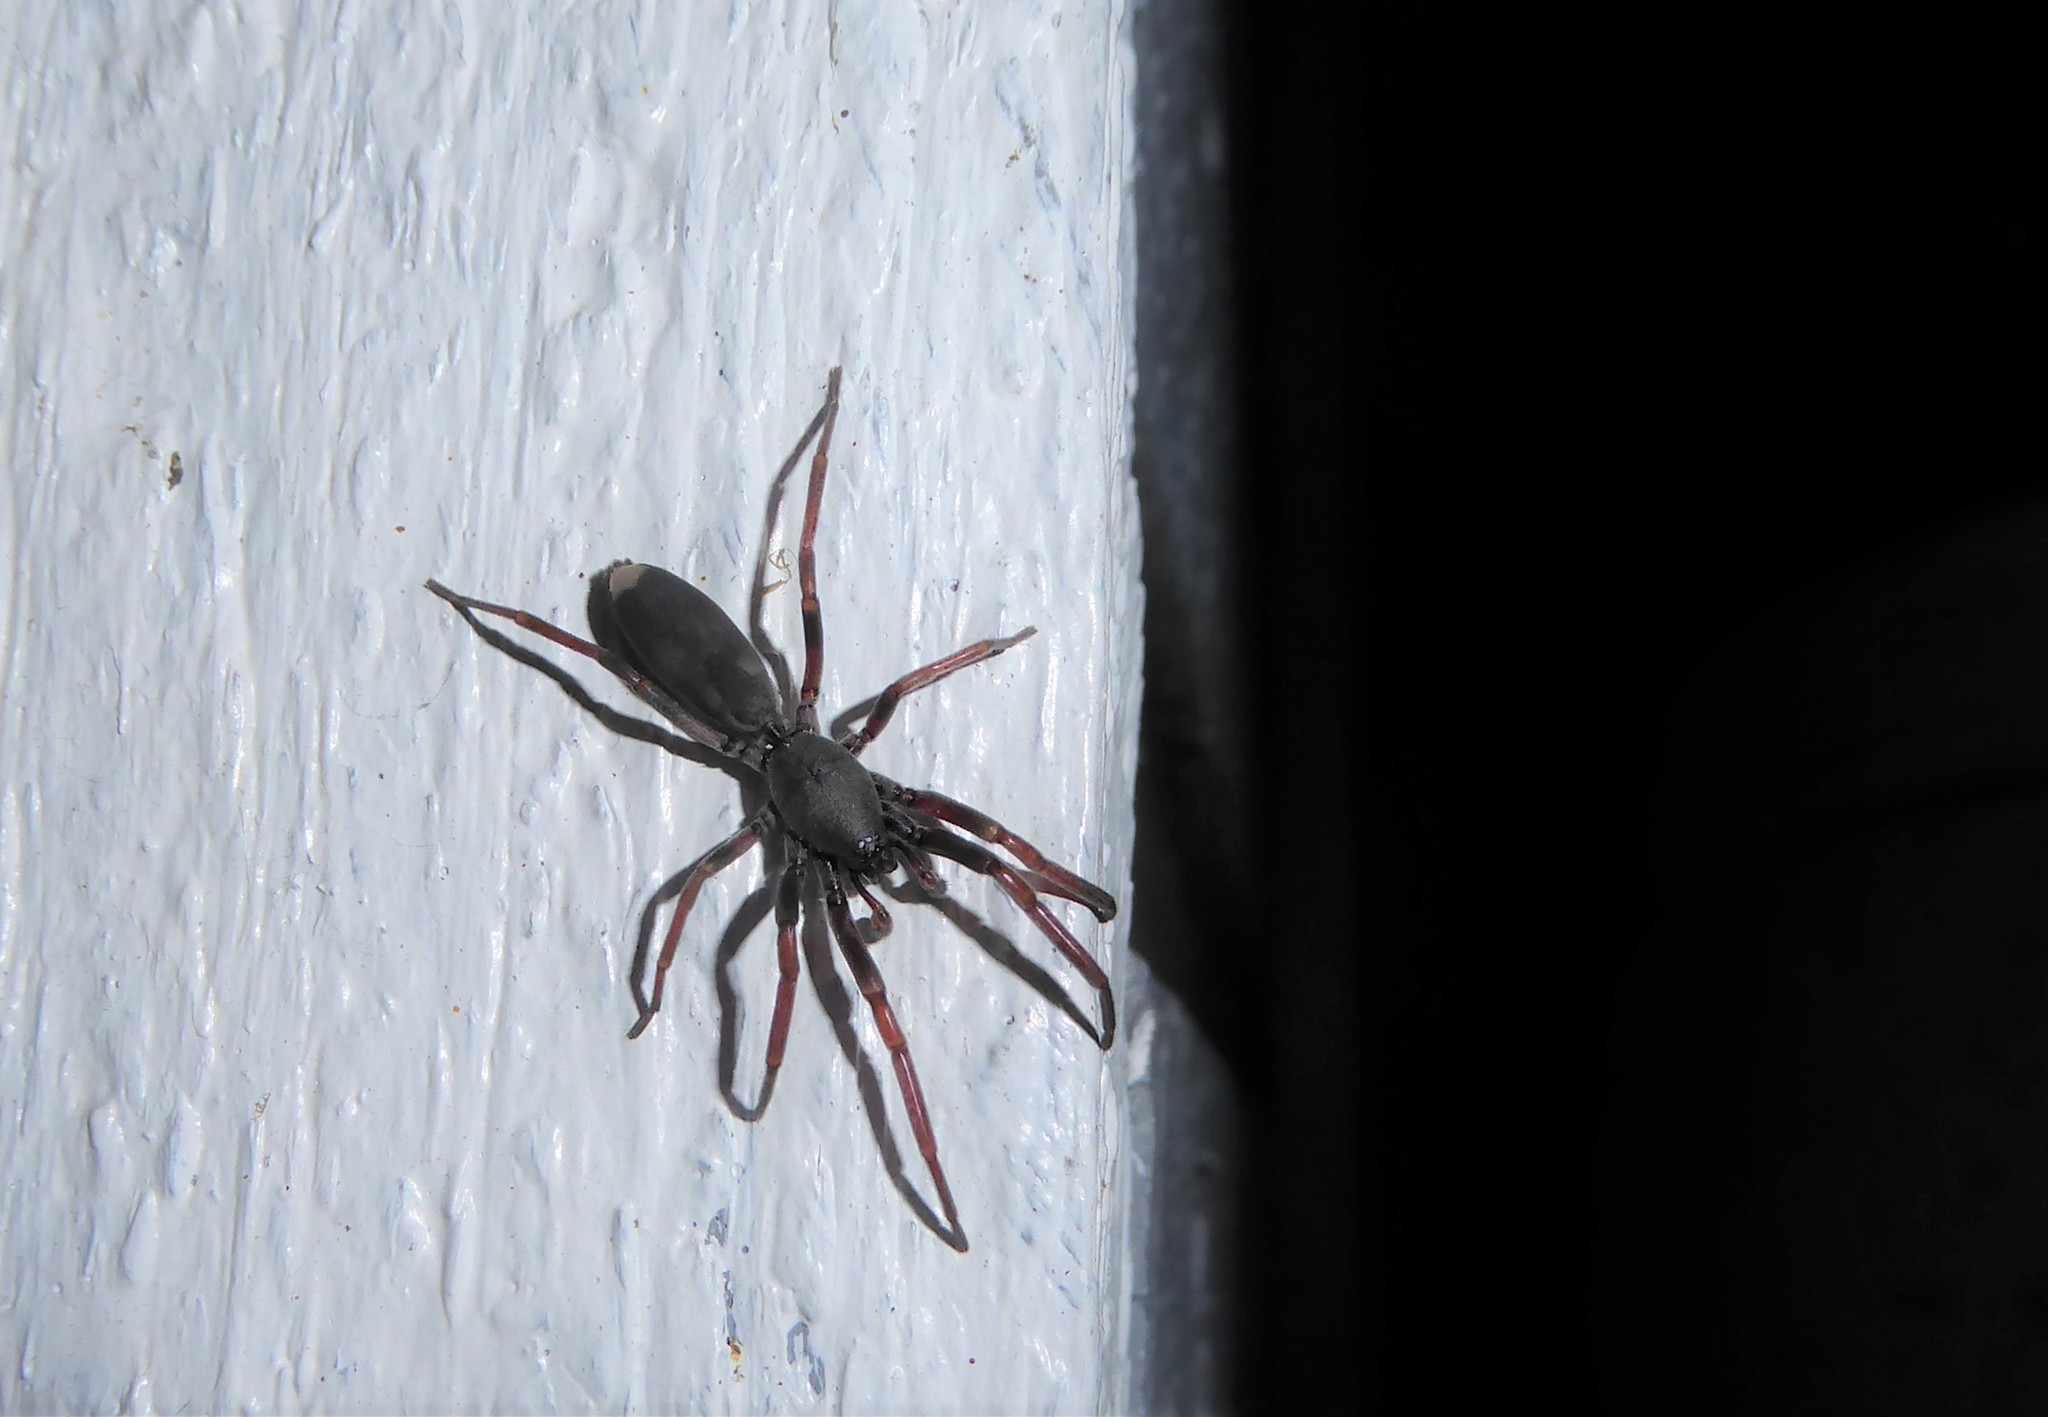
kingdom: Animalia
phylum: Arthropoda
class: Arachnida
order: Araneae
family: Lamponidae
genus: Lampona
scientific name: Lampona cylindrata
